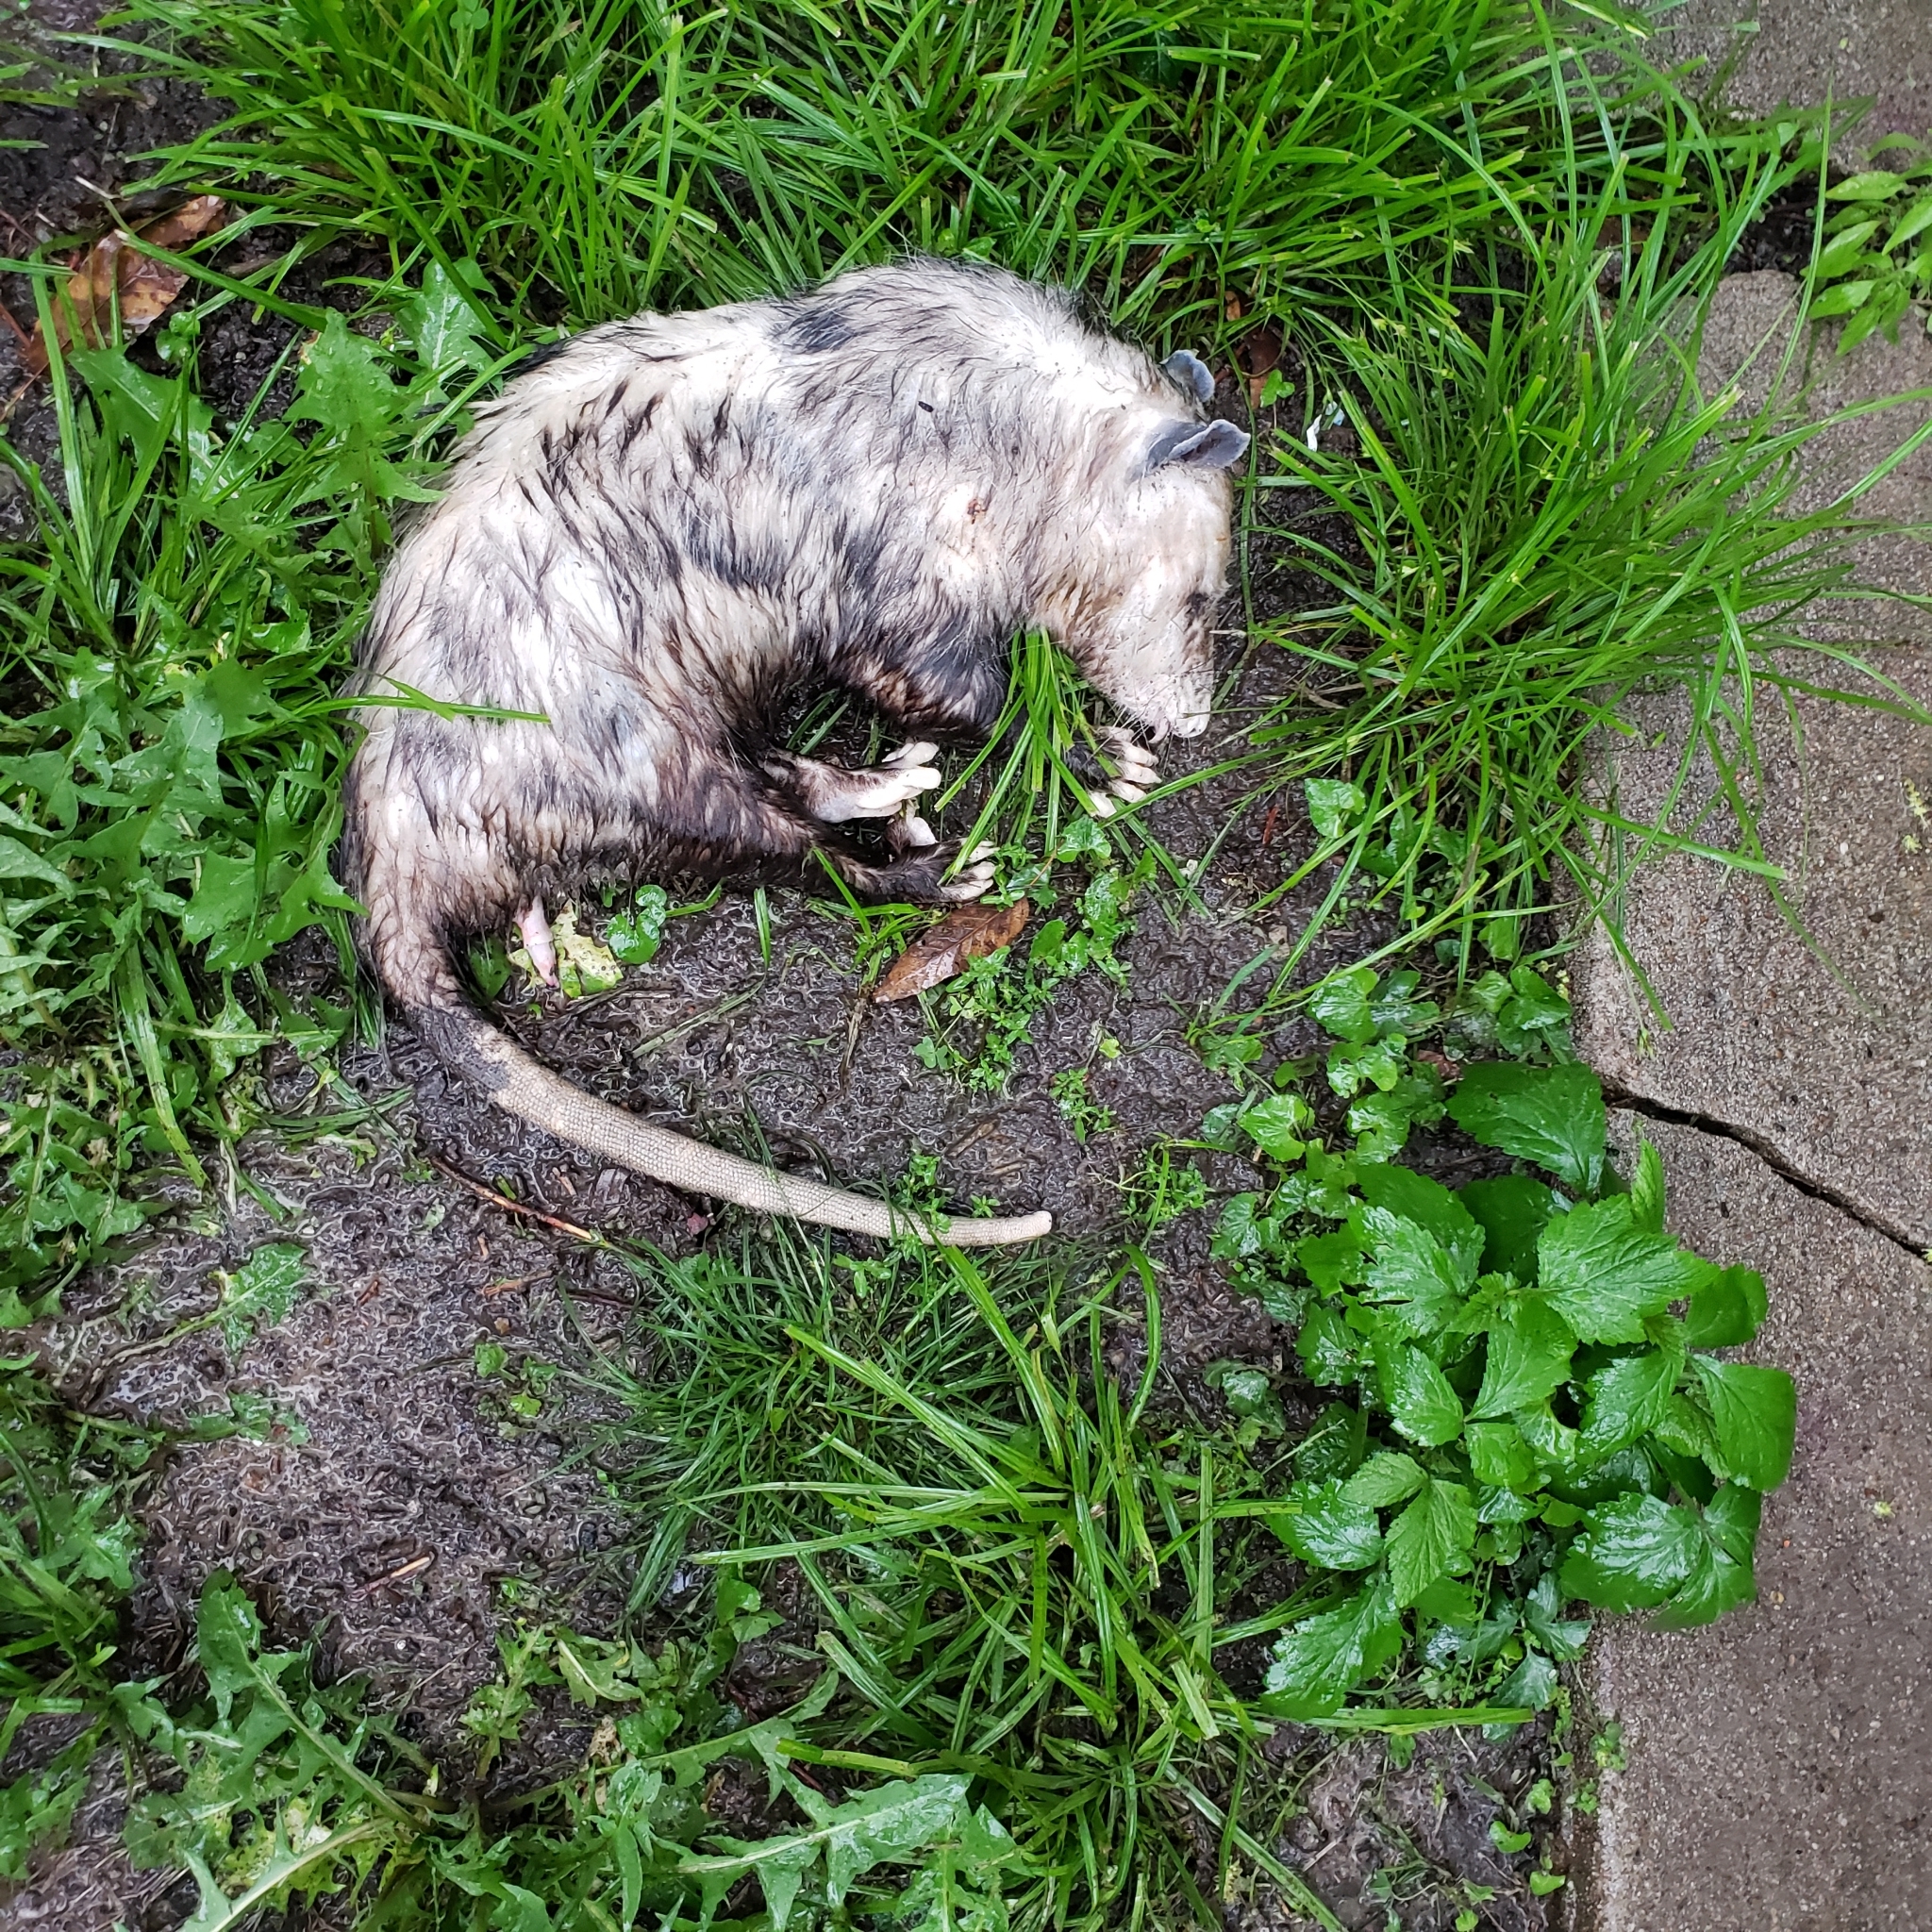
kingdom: Animalia
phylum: Chordata
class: Mammalia
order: Didelphimorphia
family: Didelphidae
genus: Didelphis
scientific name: Didelphis virginiana
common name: Virginia opossum
